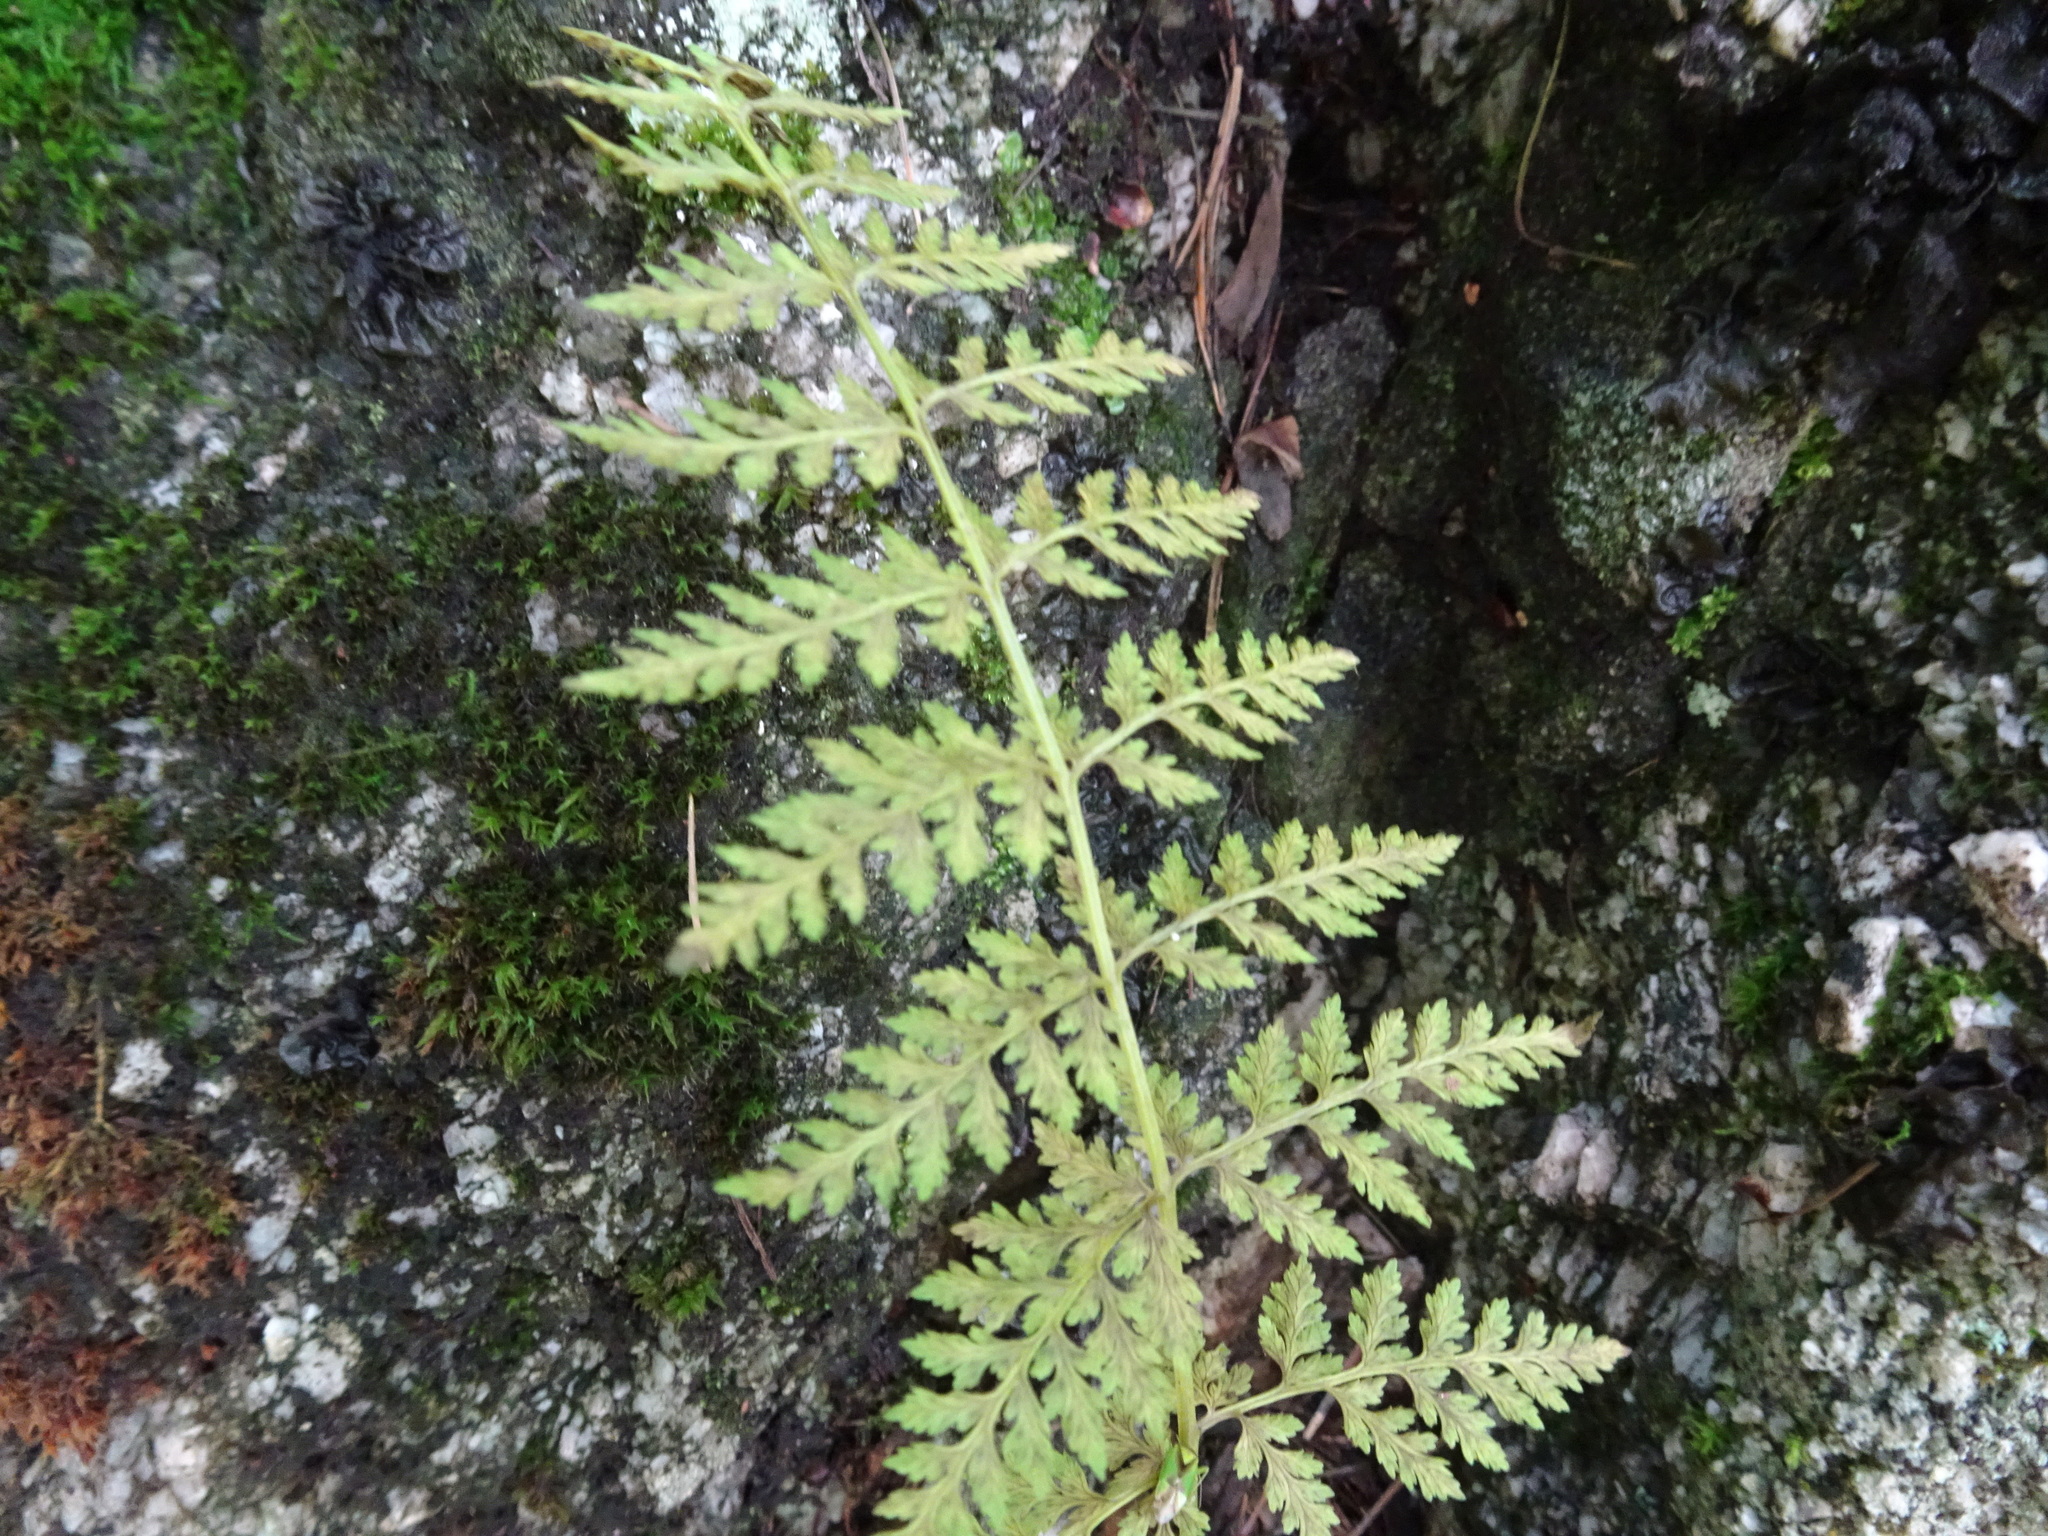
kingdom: Plantae
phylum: Tracheophyta
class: Polypodiopsida
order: Polypodiales
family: Cystopteridaceae
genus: Cystopteris
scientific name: Cystopteris fragilis
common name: Brittle bladder fern
